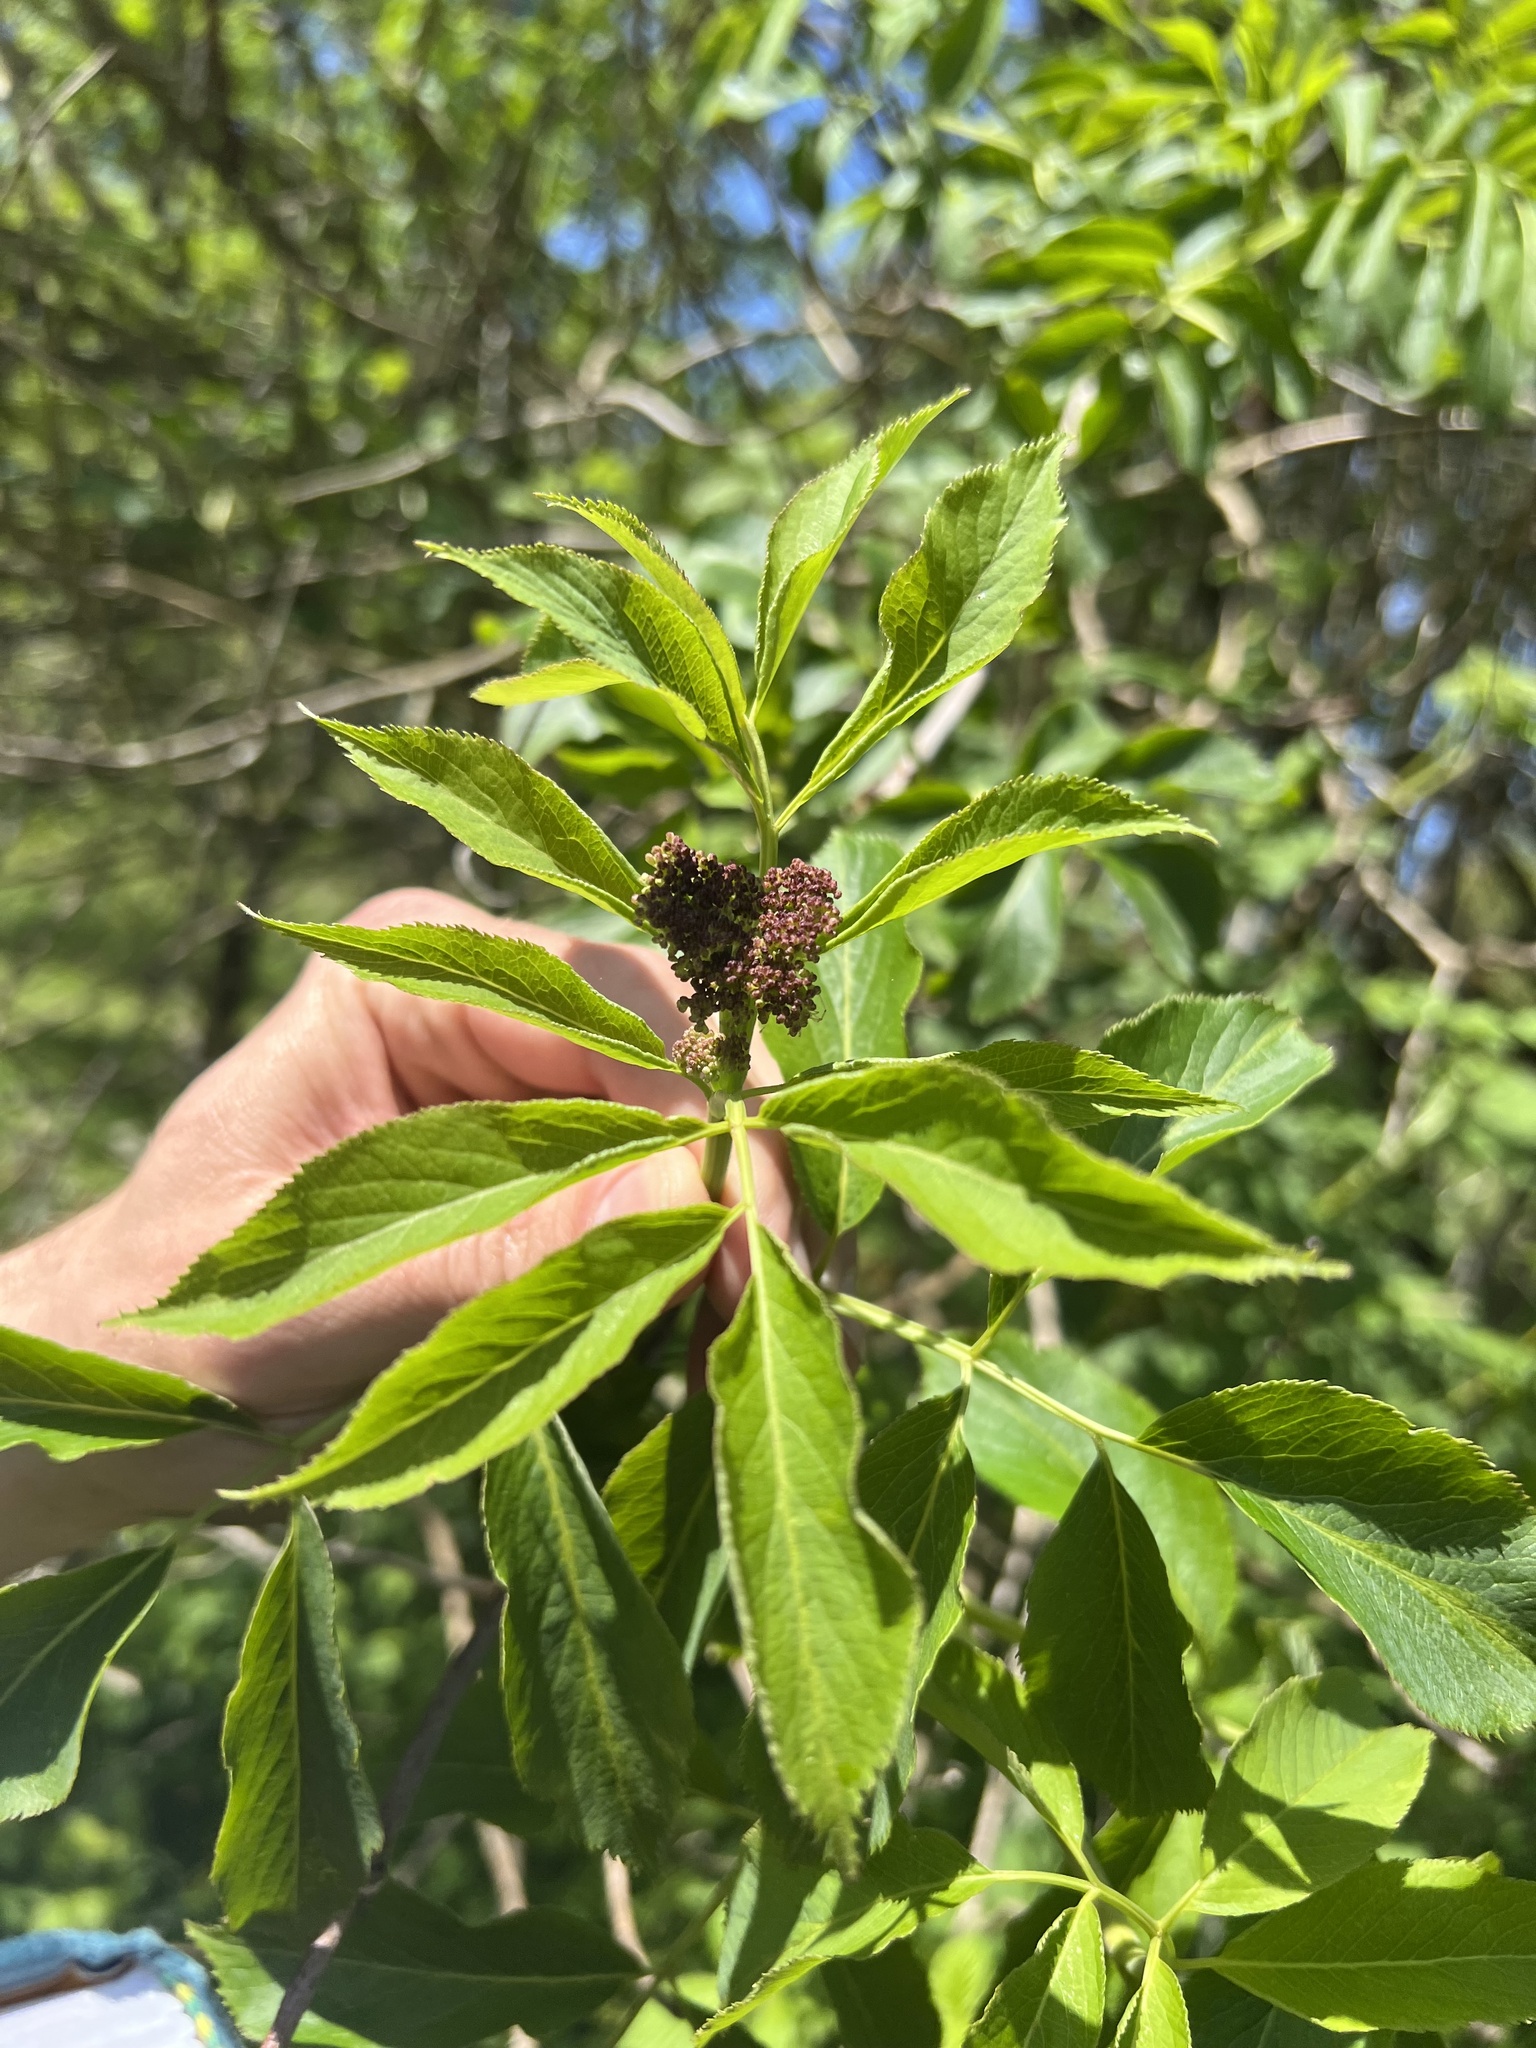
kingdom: Plantae
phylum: Tracheophyta
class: Magnoliopsida
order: Dipsacales
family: Viburnaceae
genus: Sambucus
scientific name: Sambucus cerulea
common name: Blue elder
